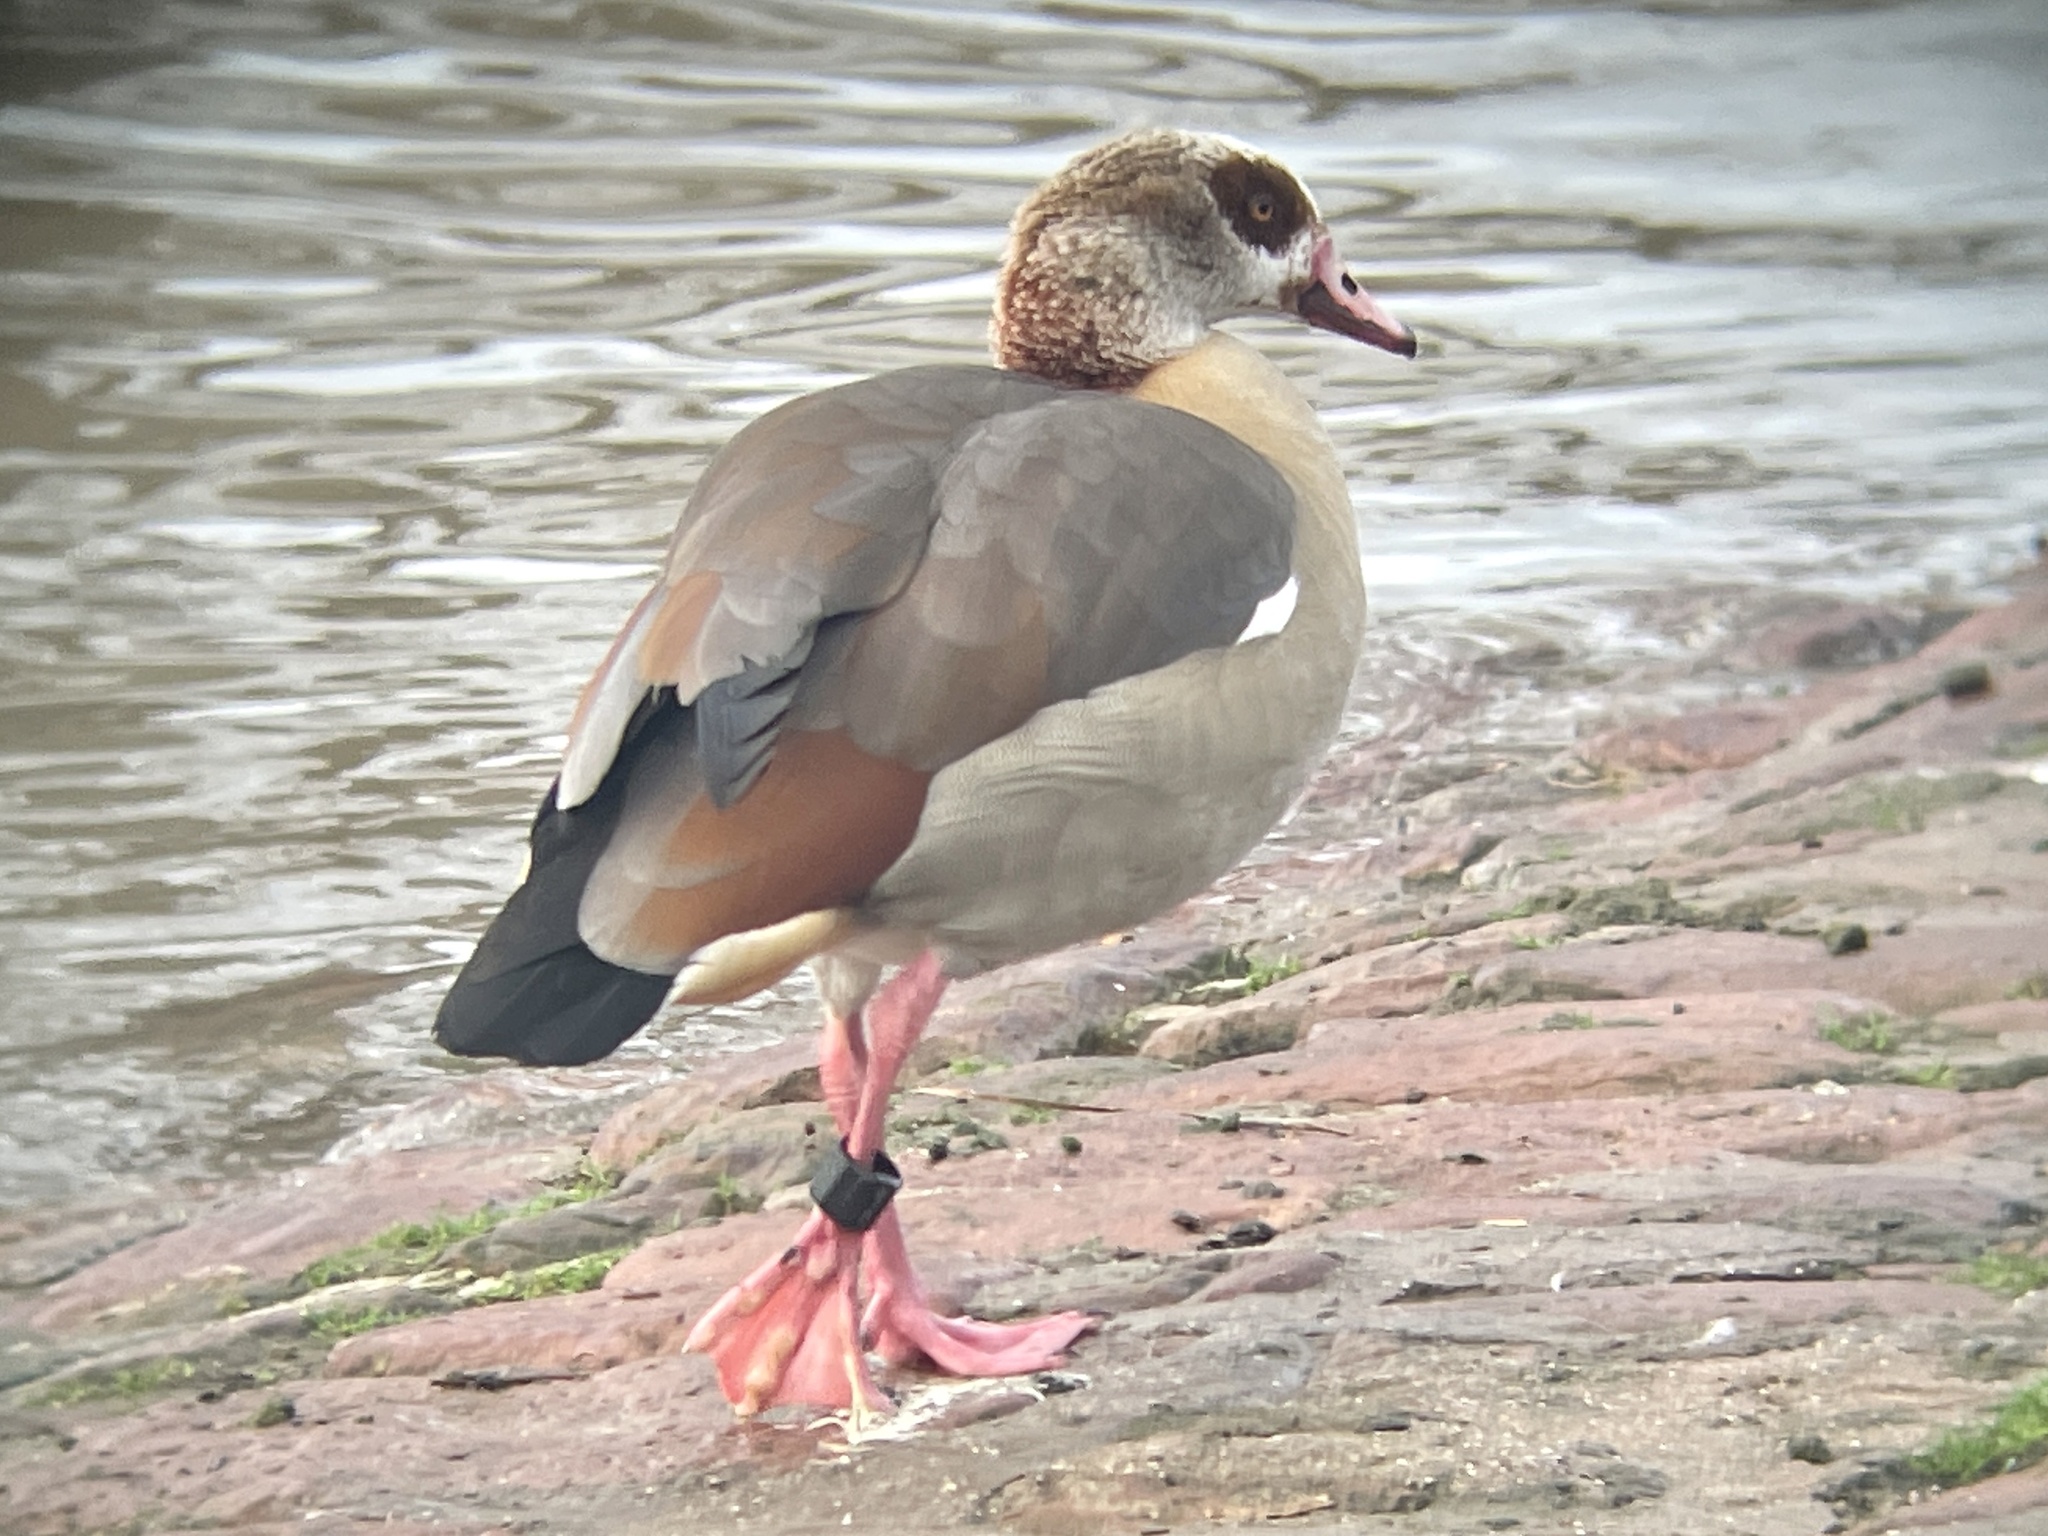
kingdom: Animalia
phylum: Chordata
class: Aves
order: Anseriformes
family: Anatidae
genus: Alopochen
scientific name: Alopochen aegyptiaca
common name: Egyptian goose
